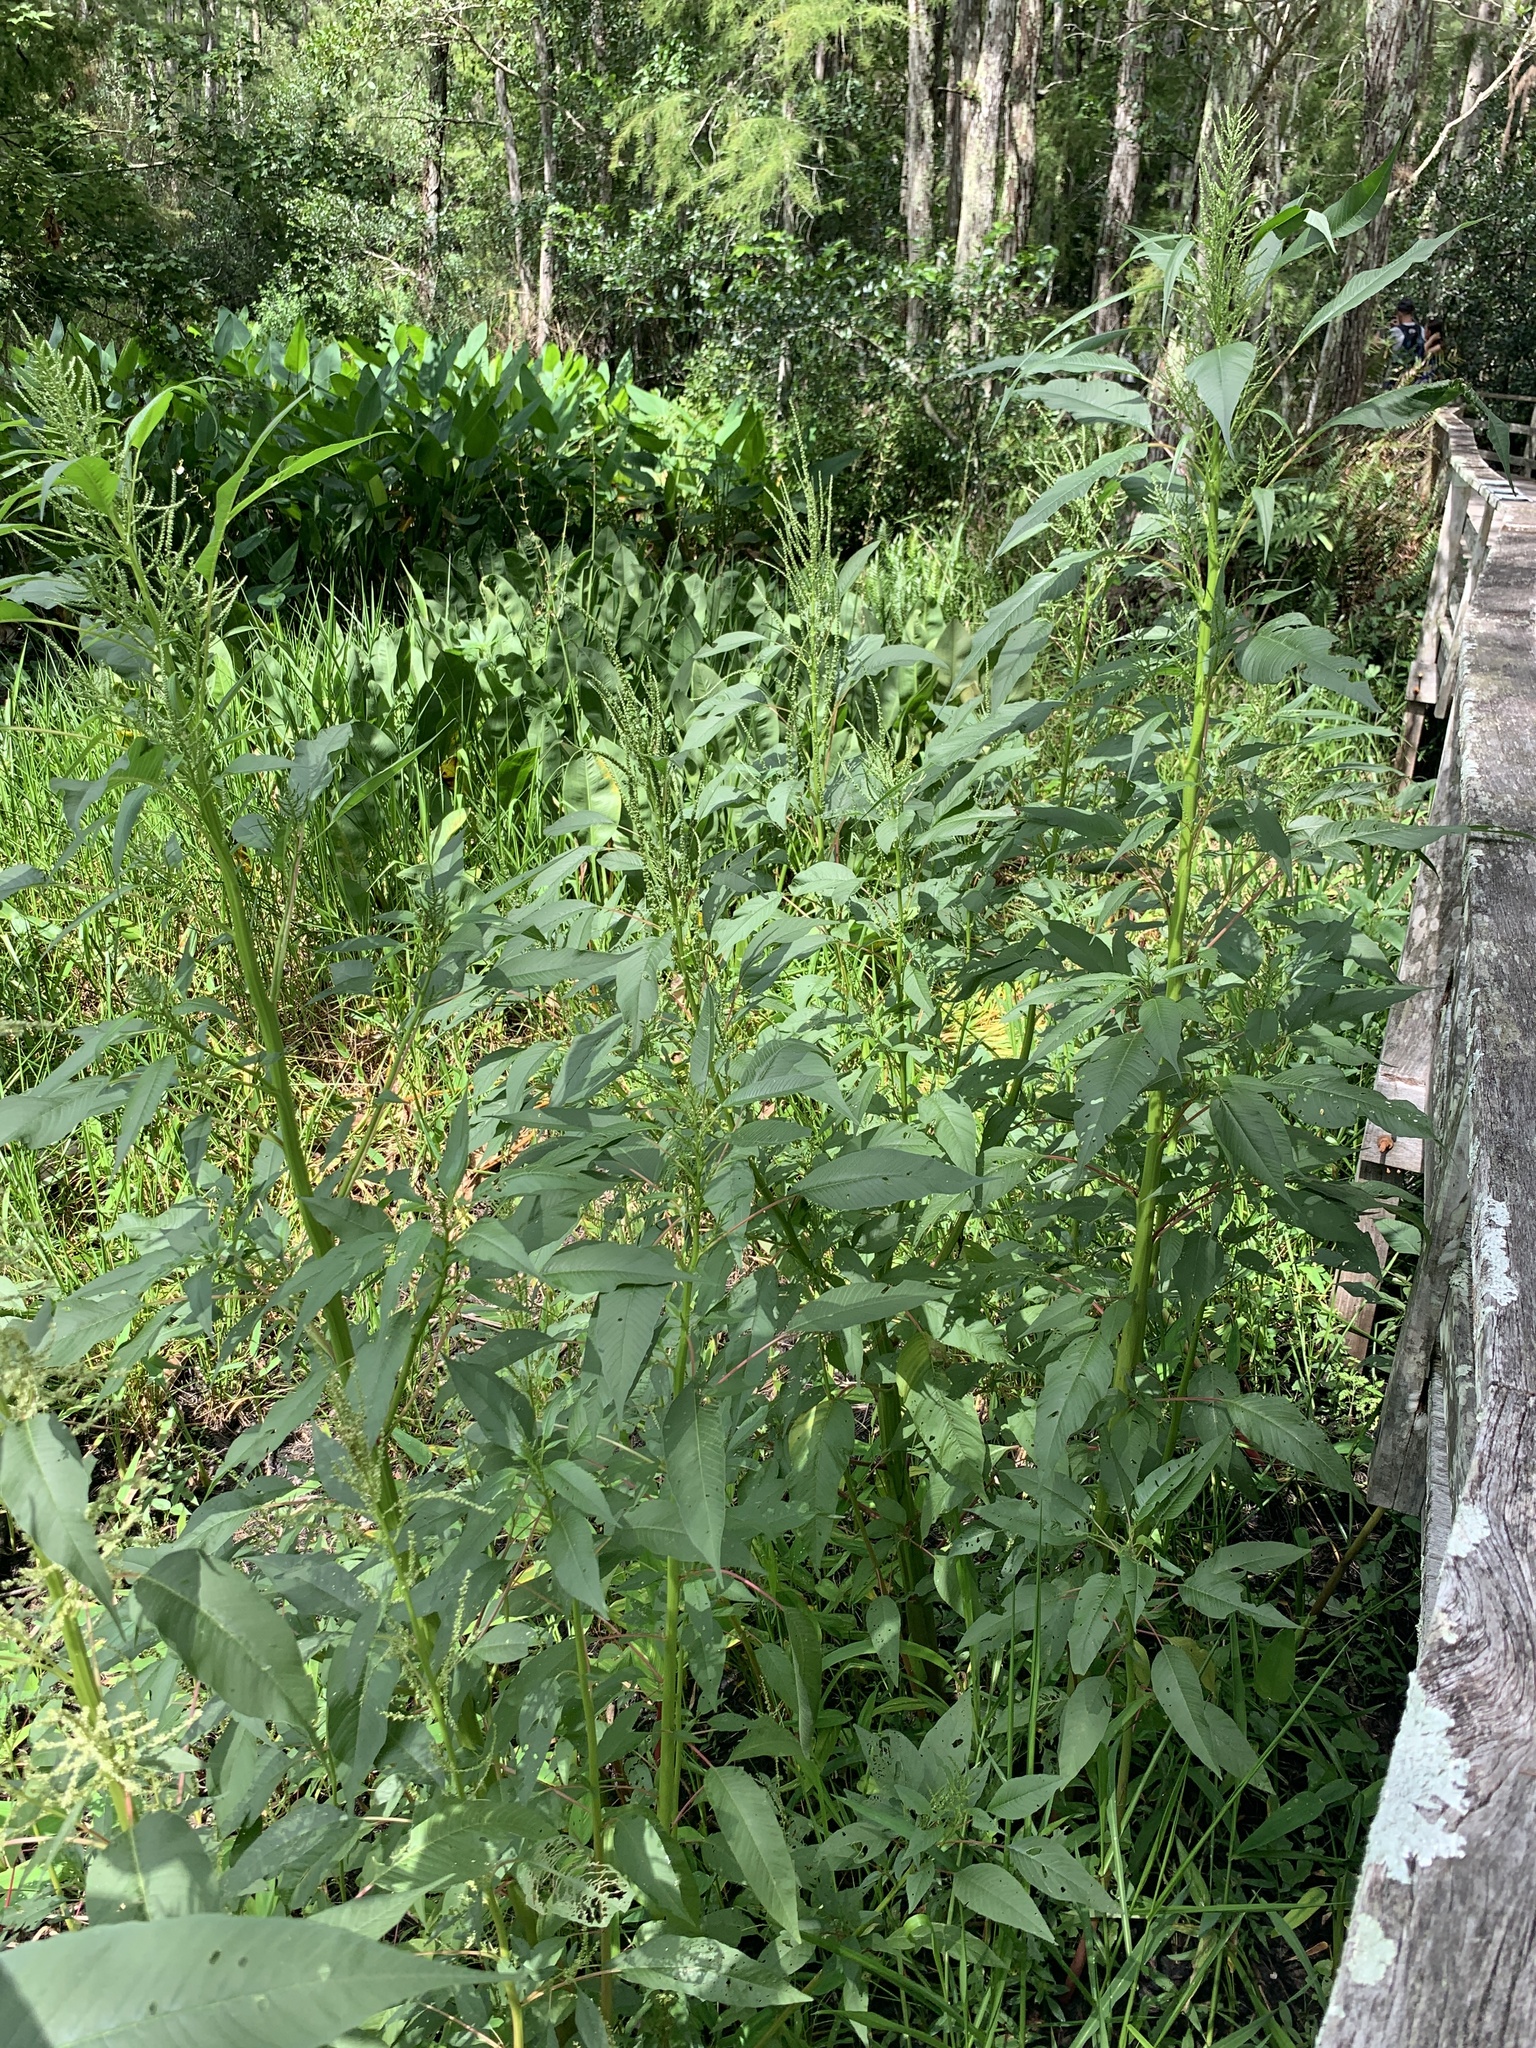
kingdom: Plantae
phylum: Tracheophyta
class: Magnoliopsida
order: Caryophyllales
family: Amaranthaceae
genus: Amaranthus
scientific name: Amaranthus australis
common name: Southern amaranth
